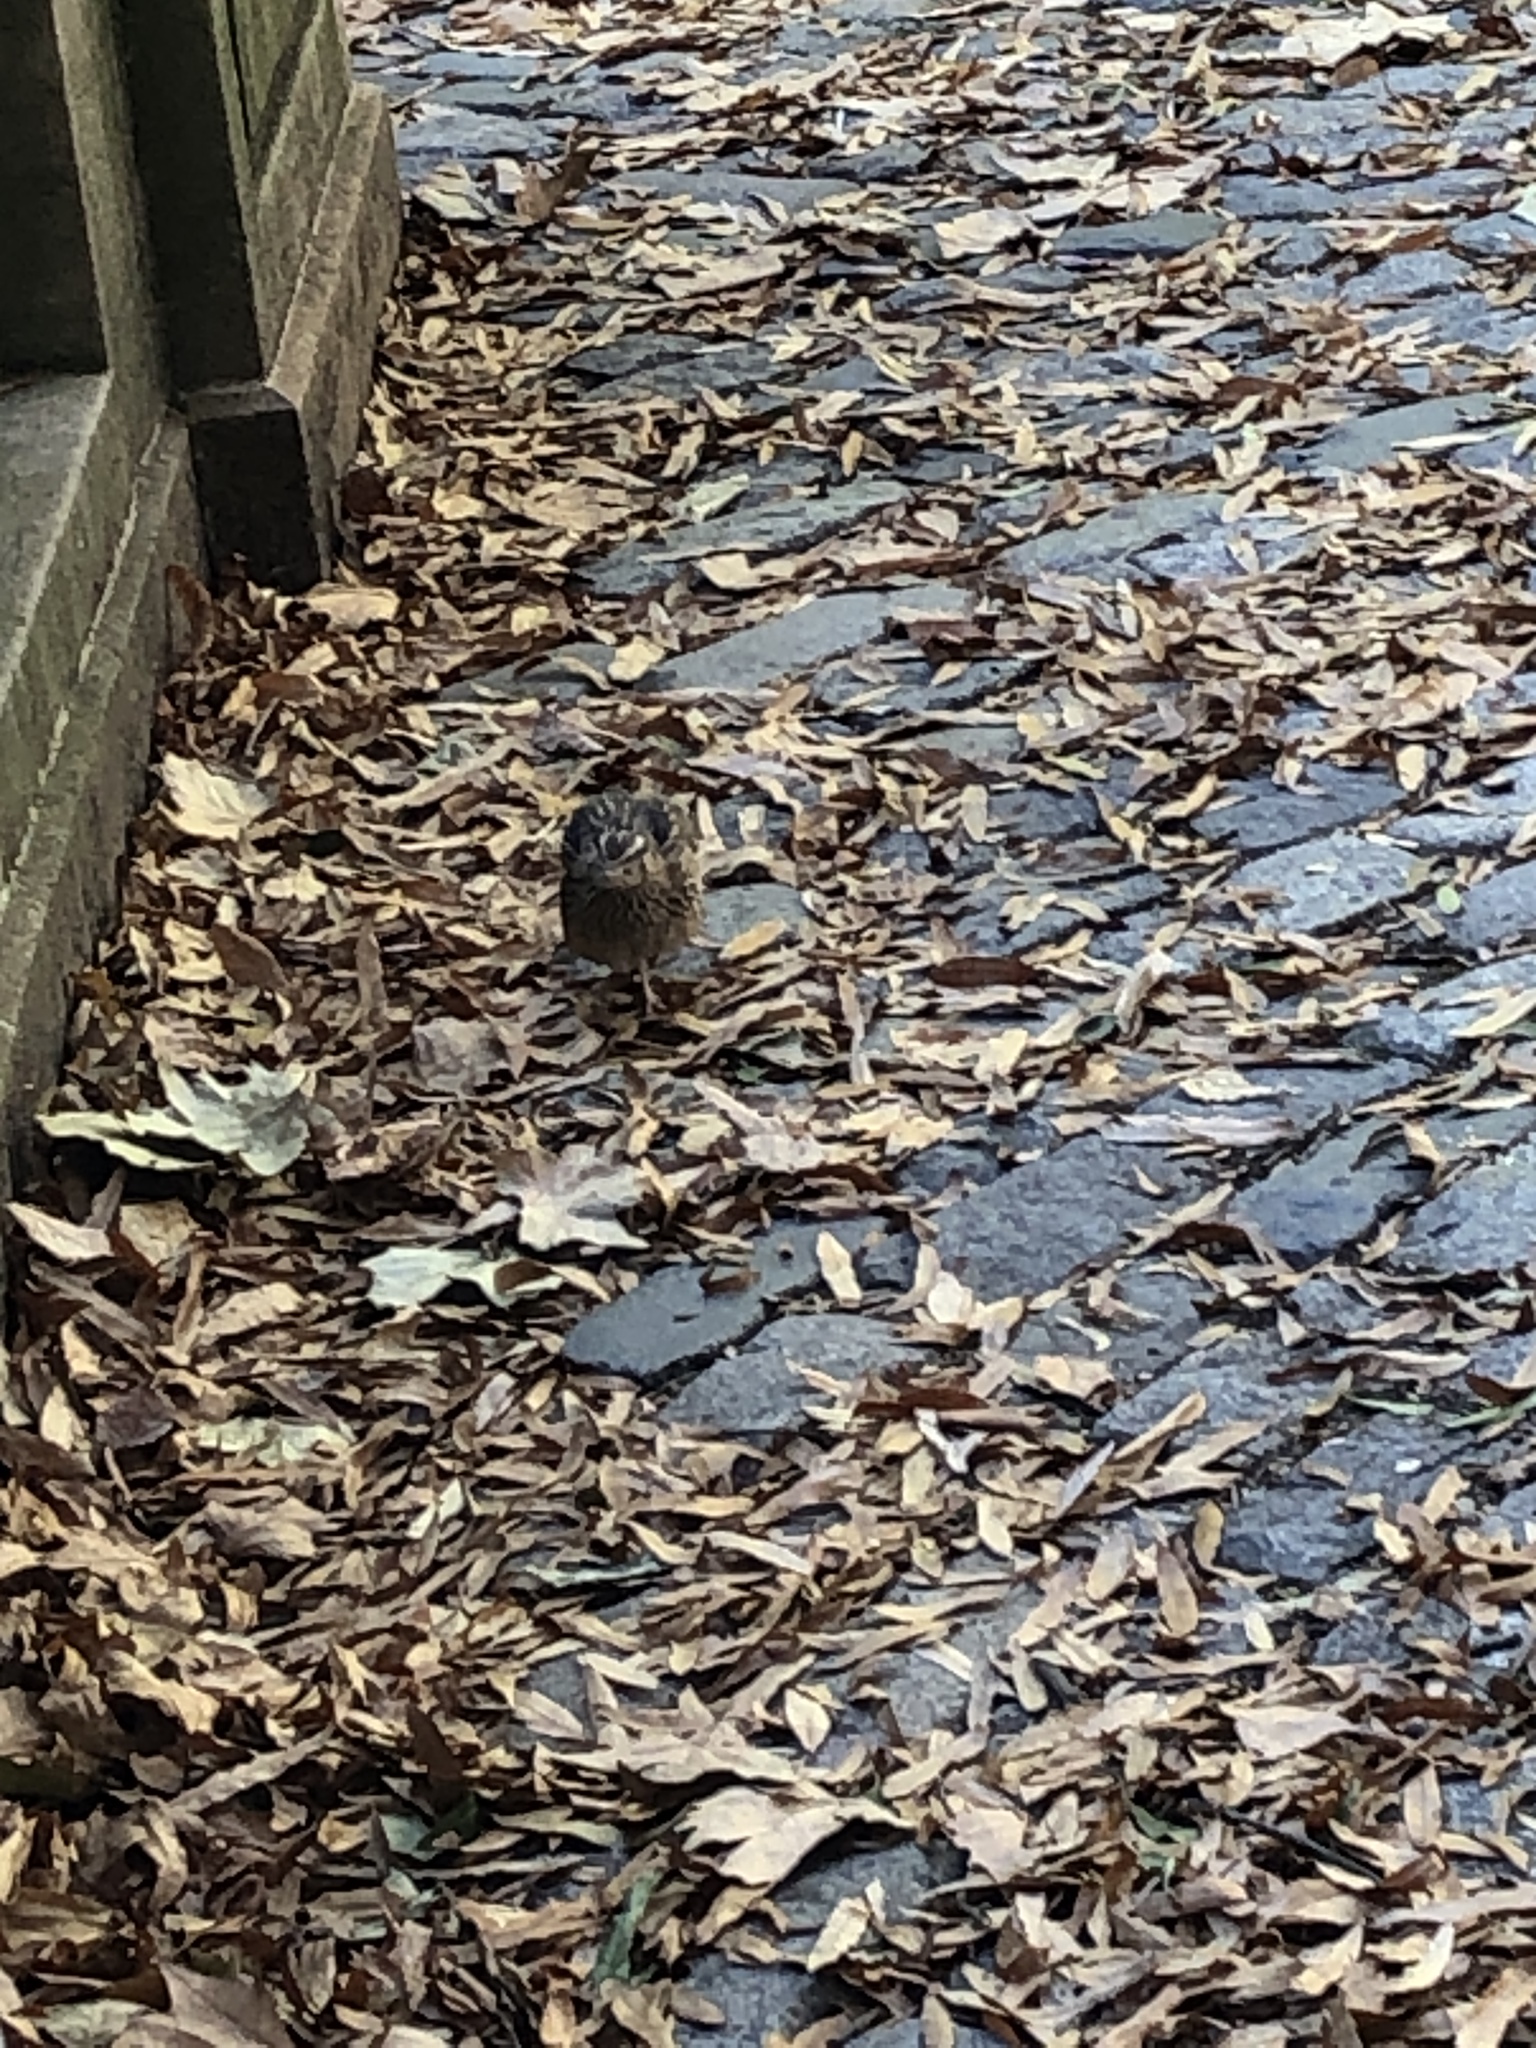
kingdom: Animalia
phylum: Chordata
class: Aves
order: Galliformes
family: Phasianidae
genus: Coturnix
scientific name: Coturnix japonica
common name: Japanese quail
